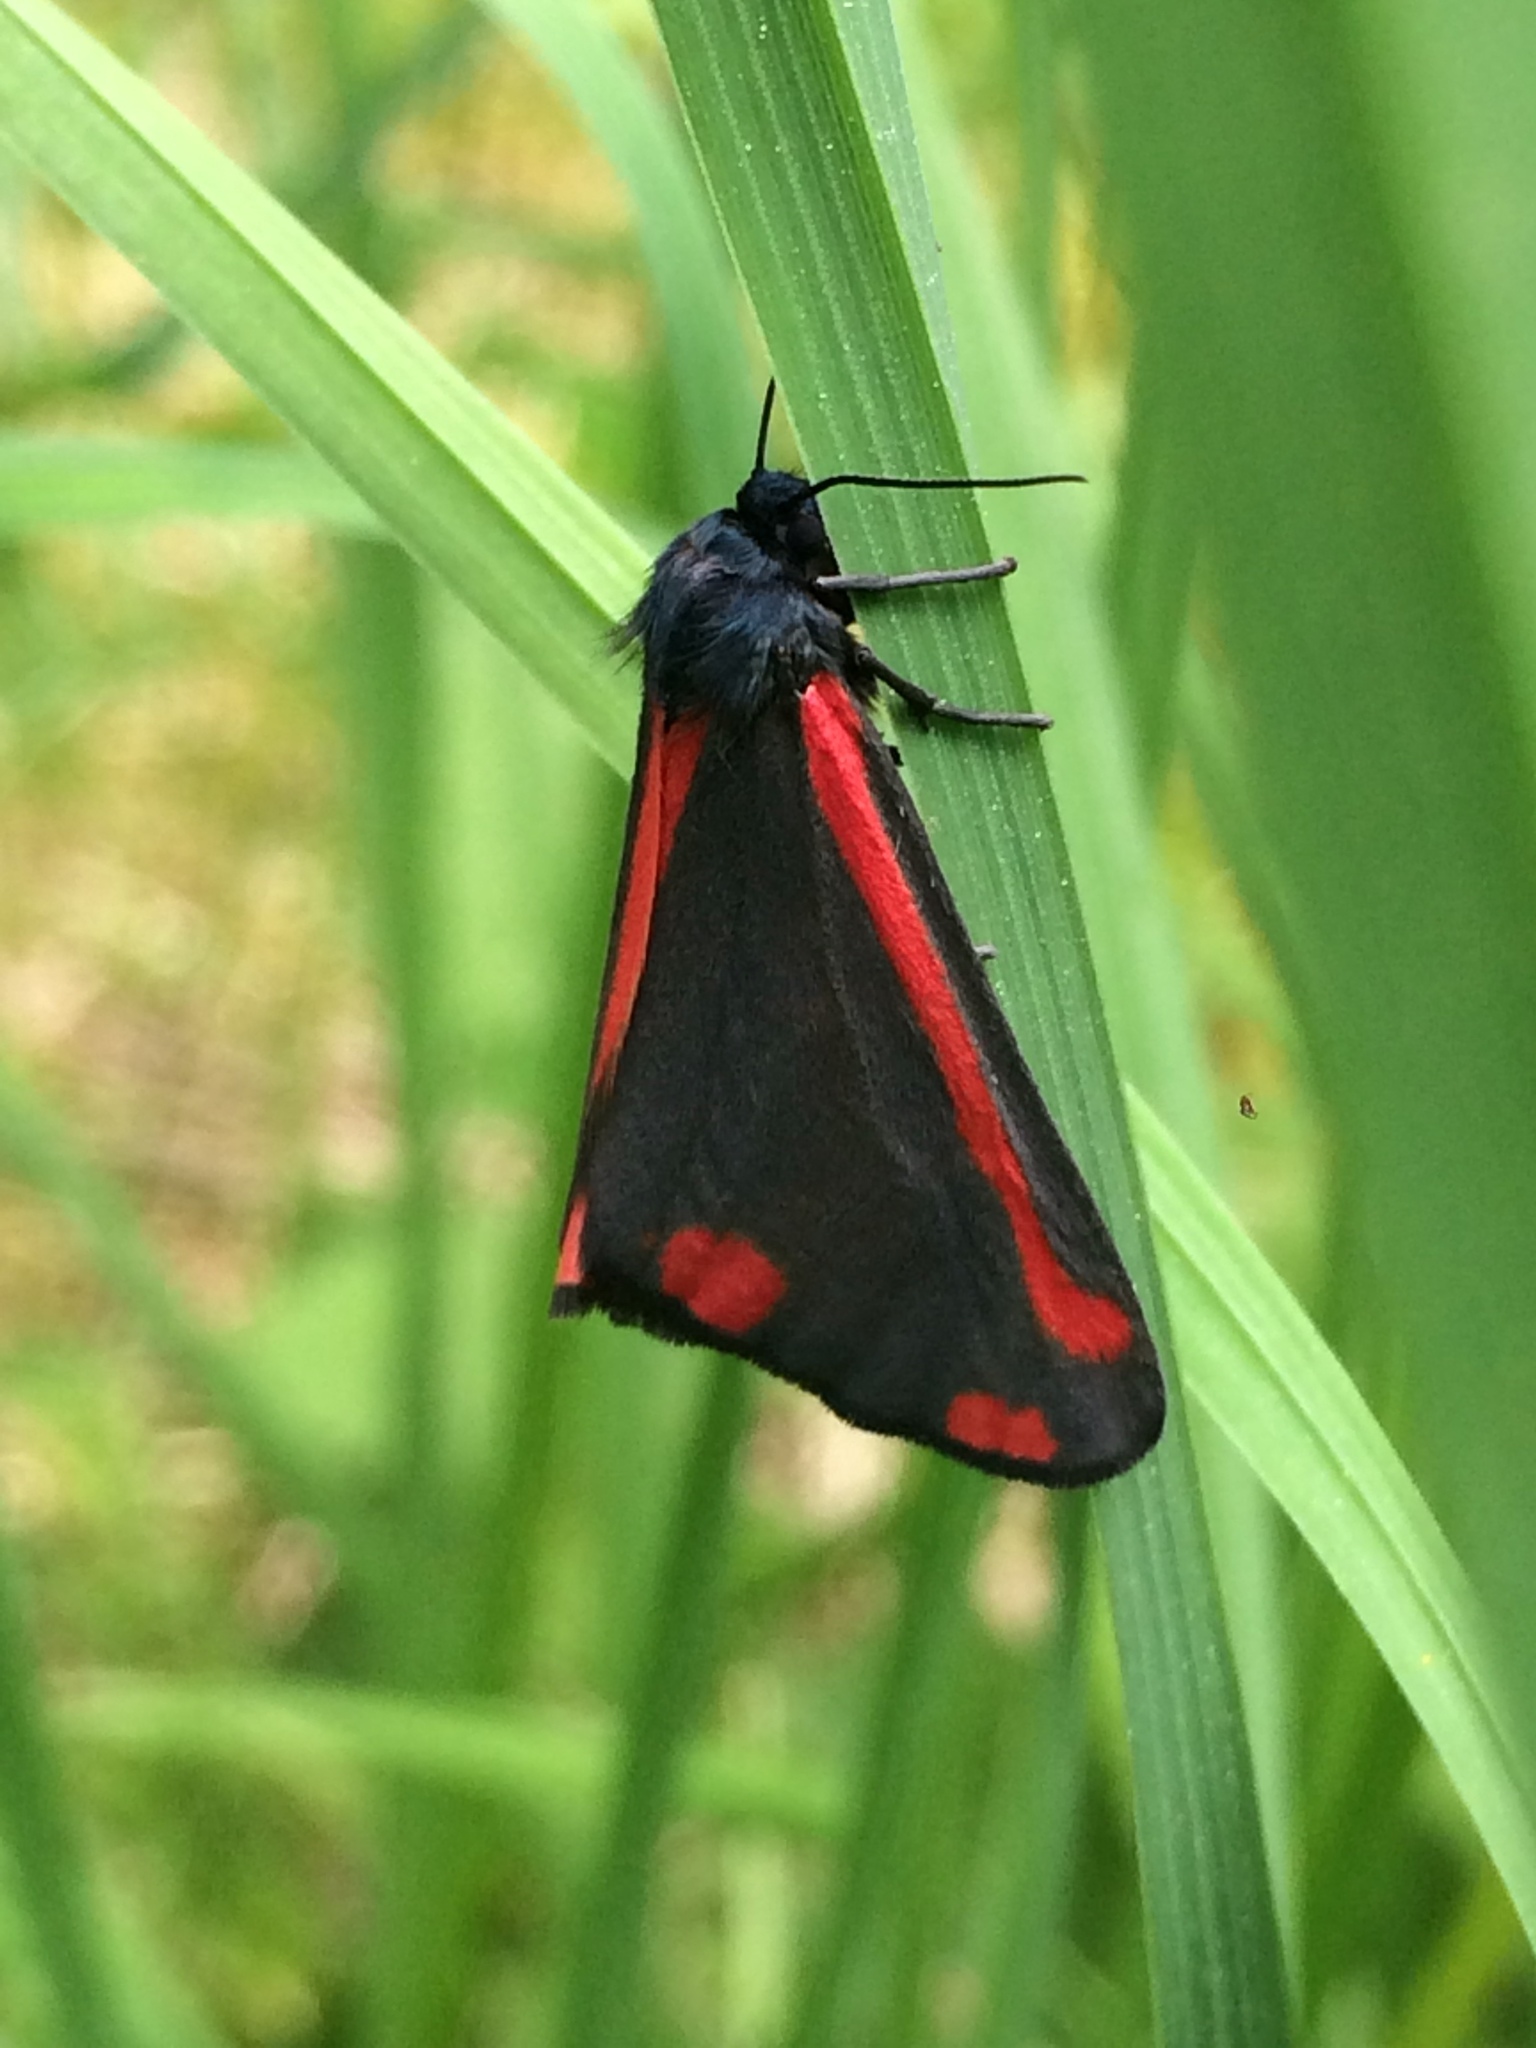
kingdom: Animalia
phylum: Arthropoda
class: Insecta
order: Lepidoptera
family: Erebidae
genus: Tyria
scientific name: Tyria jacobaeae
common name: Cinnabar
